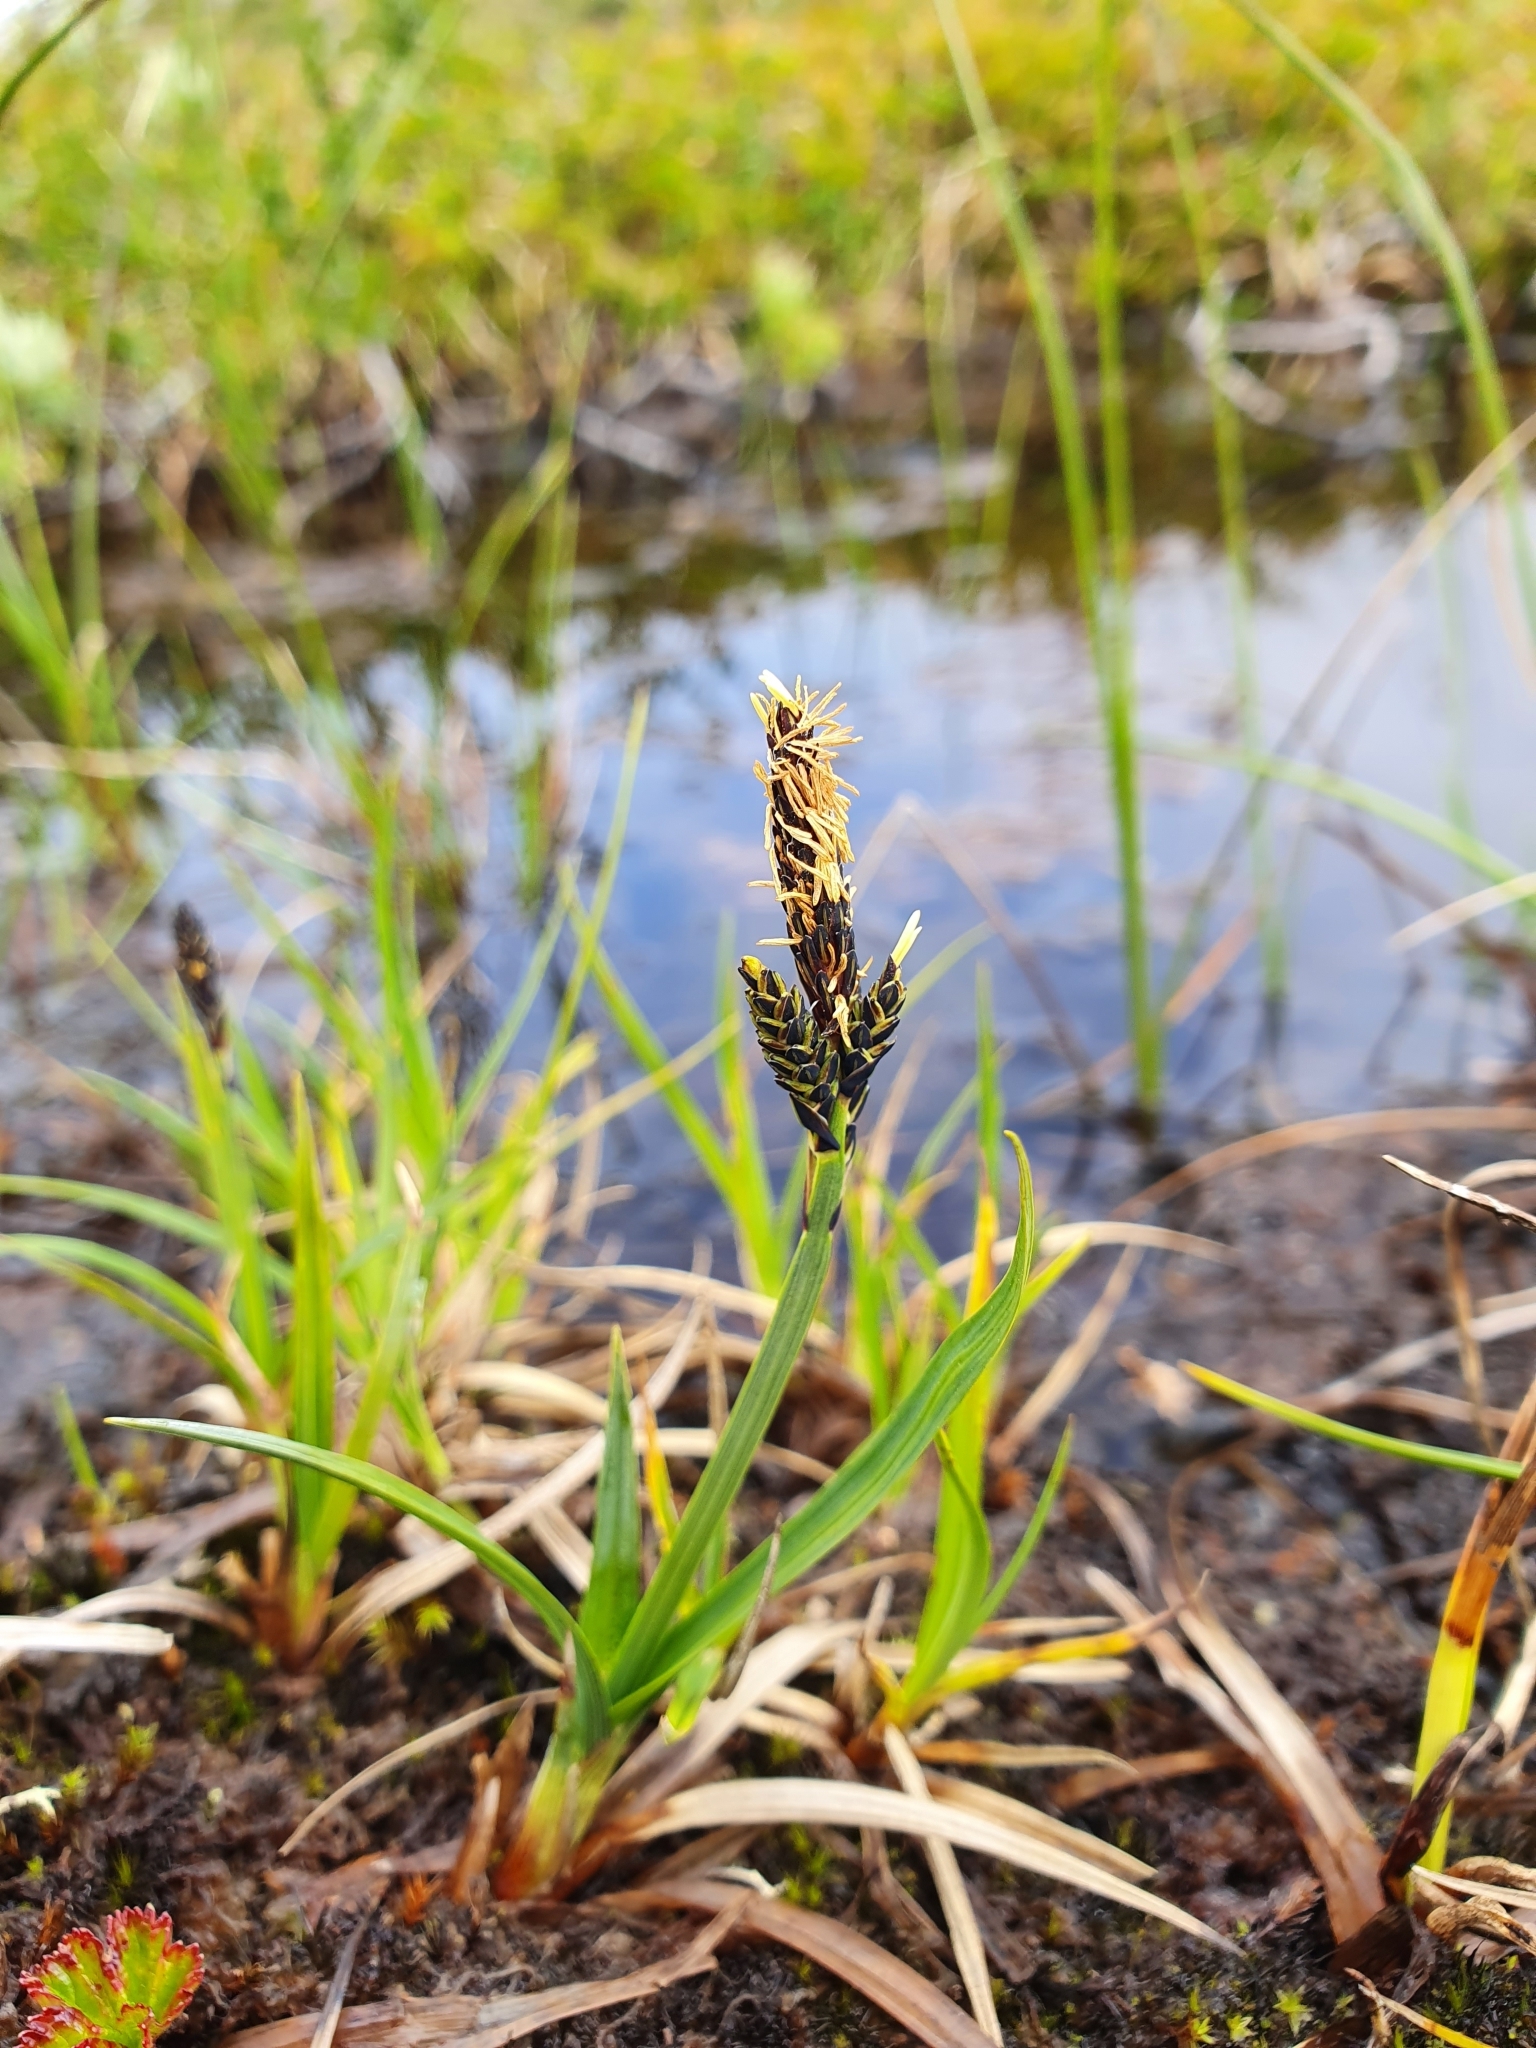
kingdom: Plantae
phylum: Tracheophyta
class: Liliopsida
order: Poales
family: Cyperaceae
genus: Carex
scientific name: Carex bigelowii
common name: Stiff sedge
